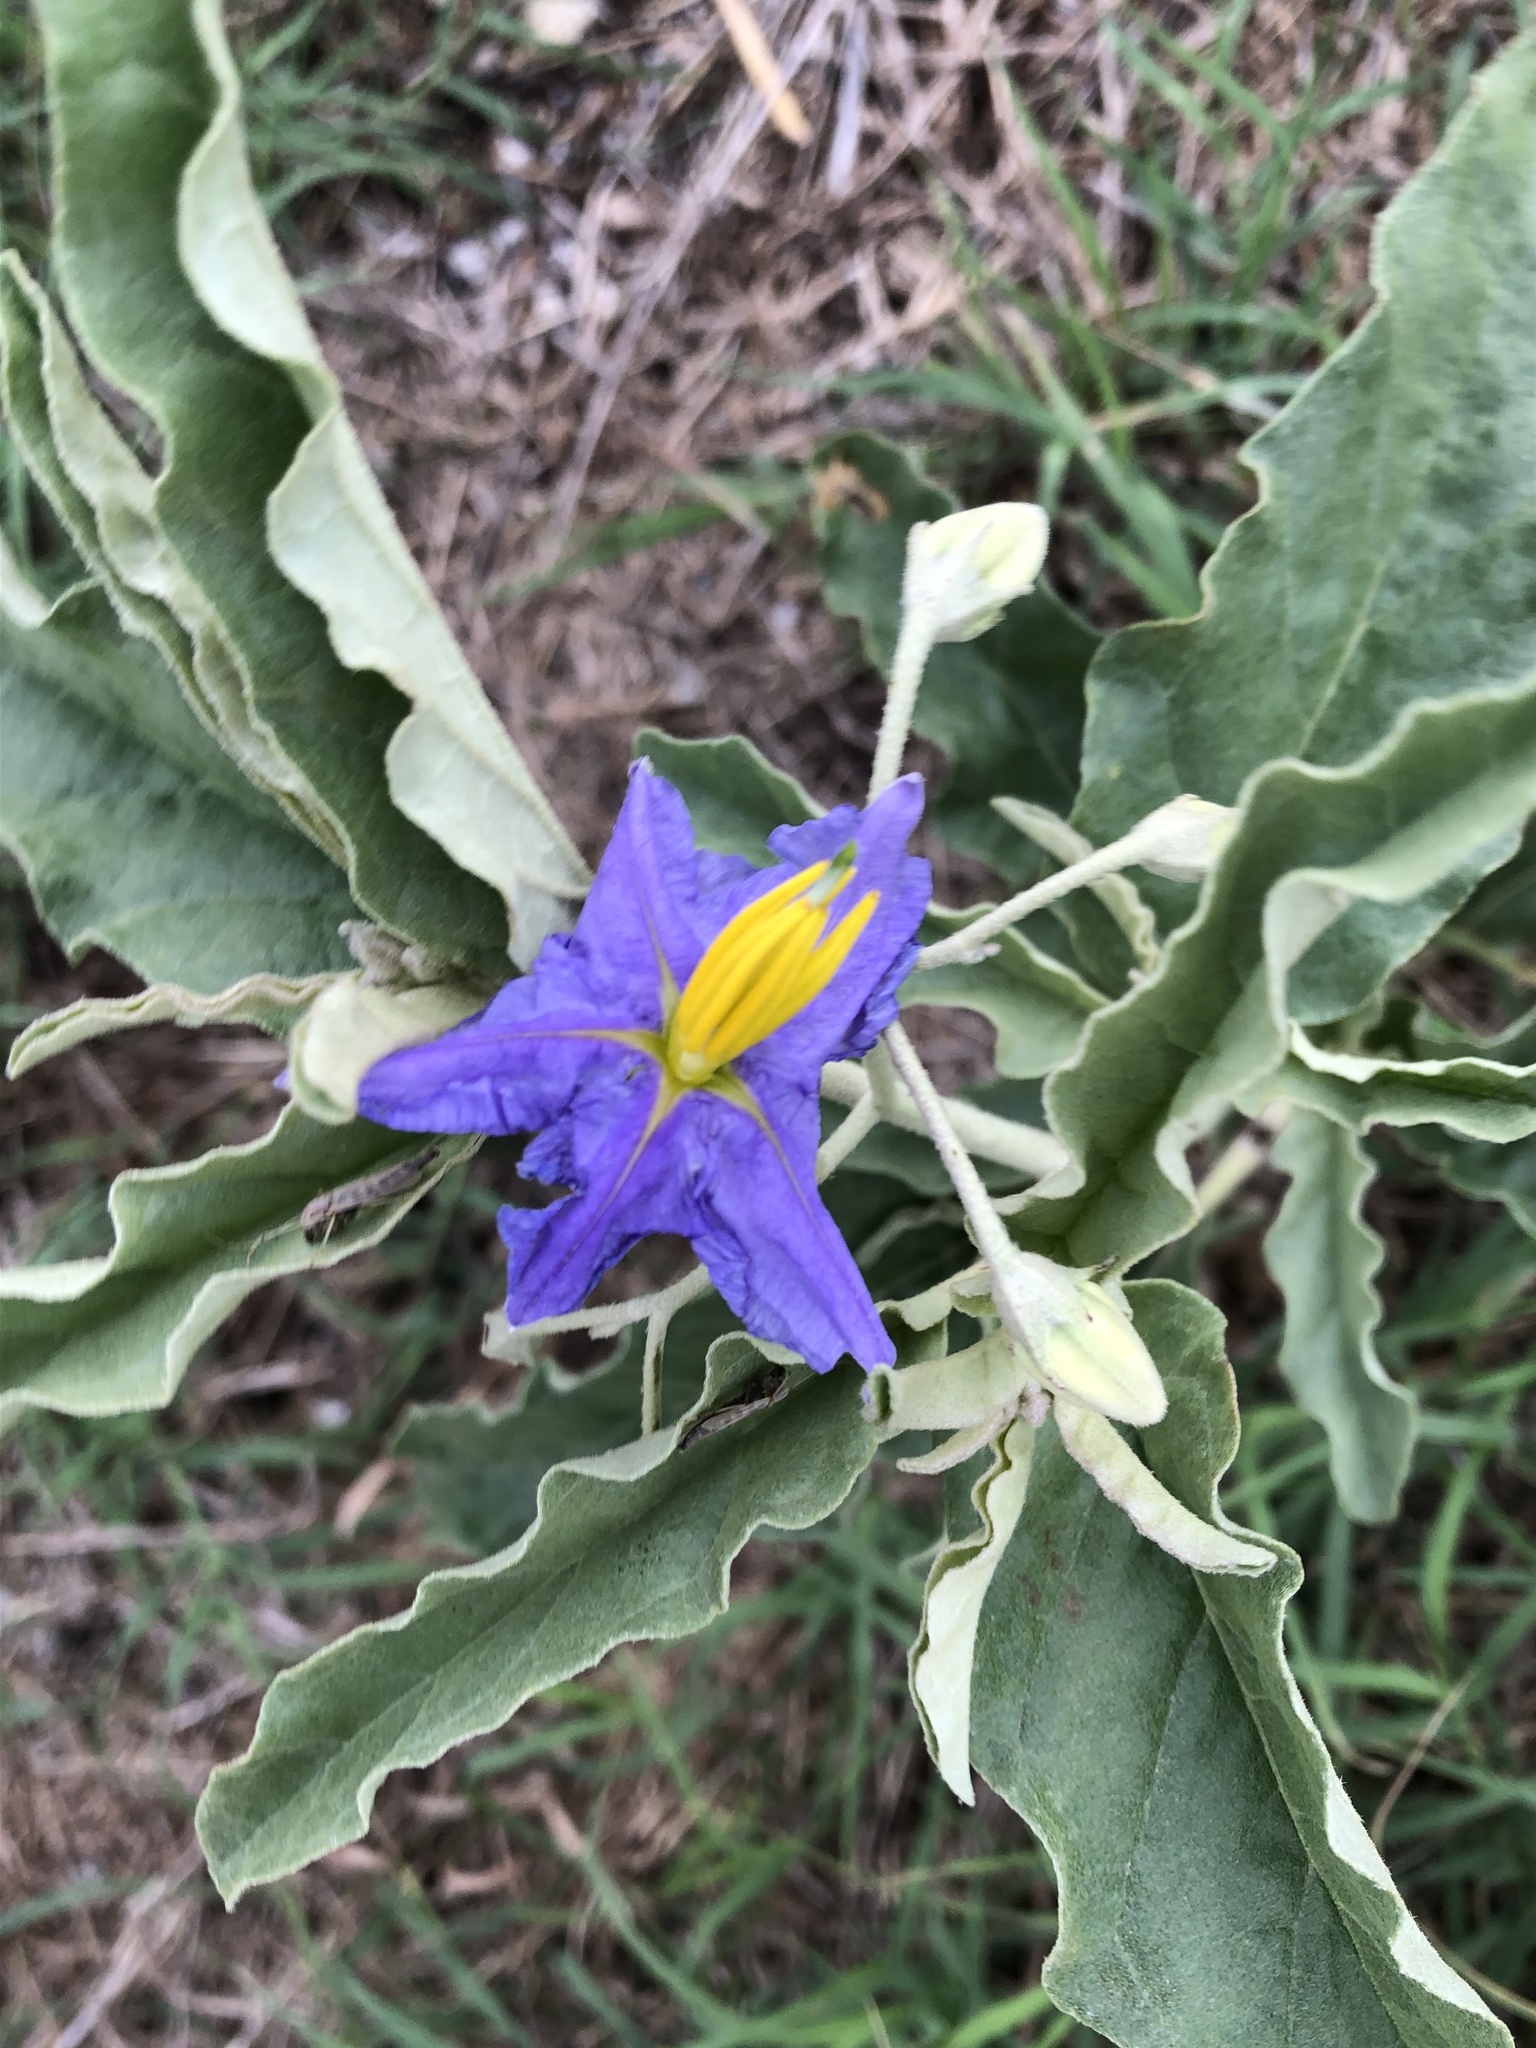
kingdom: Plantae
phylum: Tracheophyta
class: Magnoliopsida
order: Solanales
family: Solanaceae
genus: Solanum
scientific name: Solanum elaeagnifolium
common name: Silverleaf nightshade
